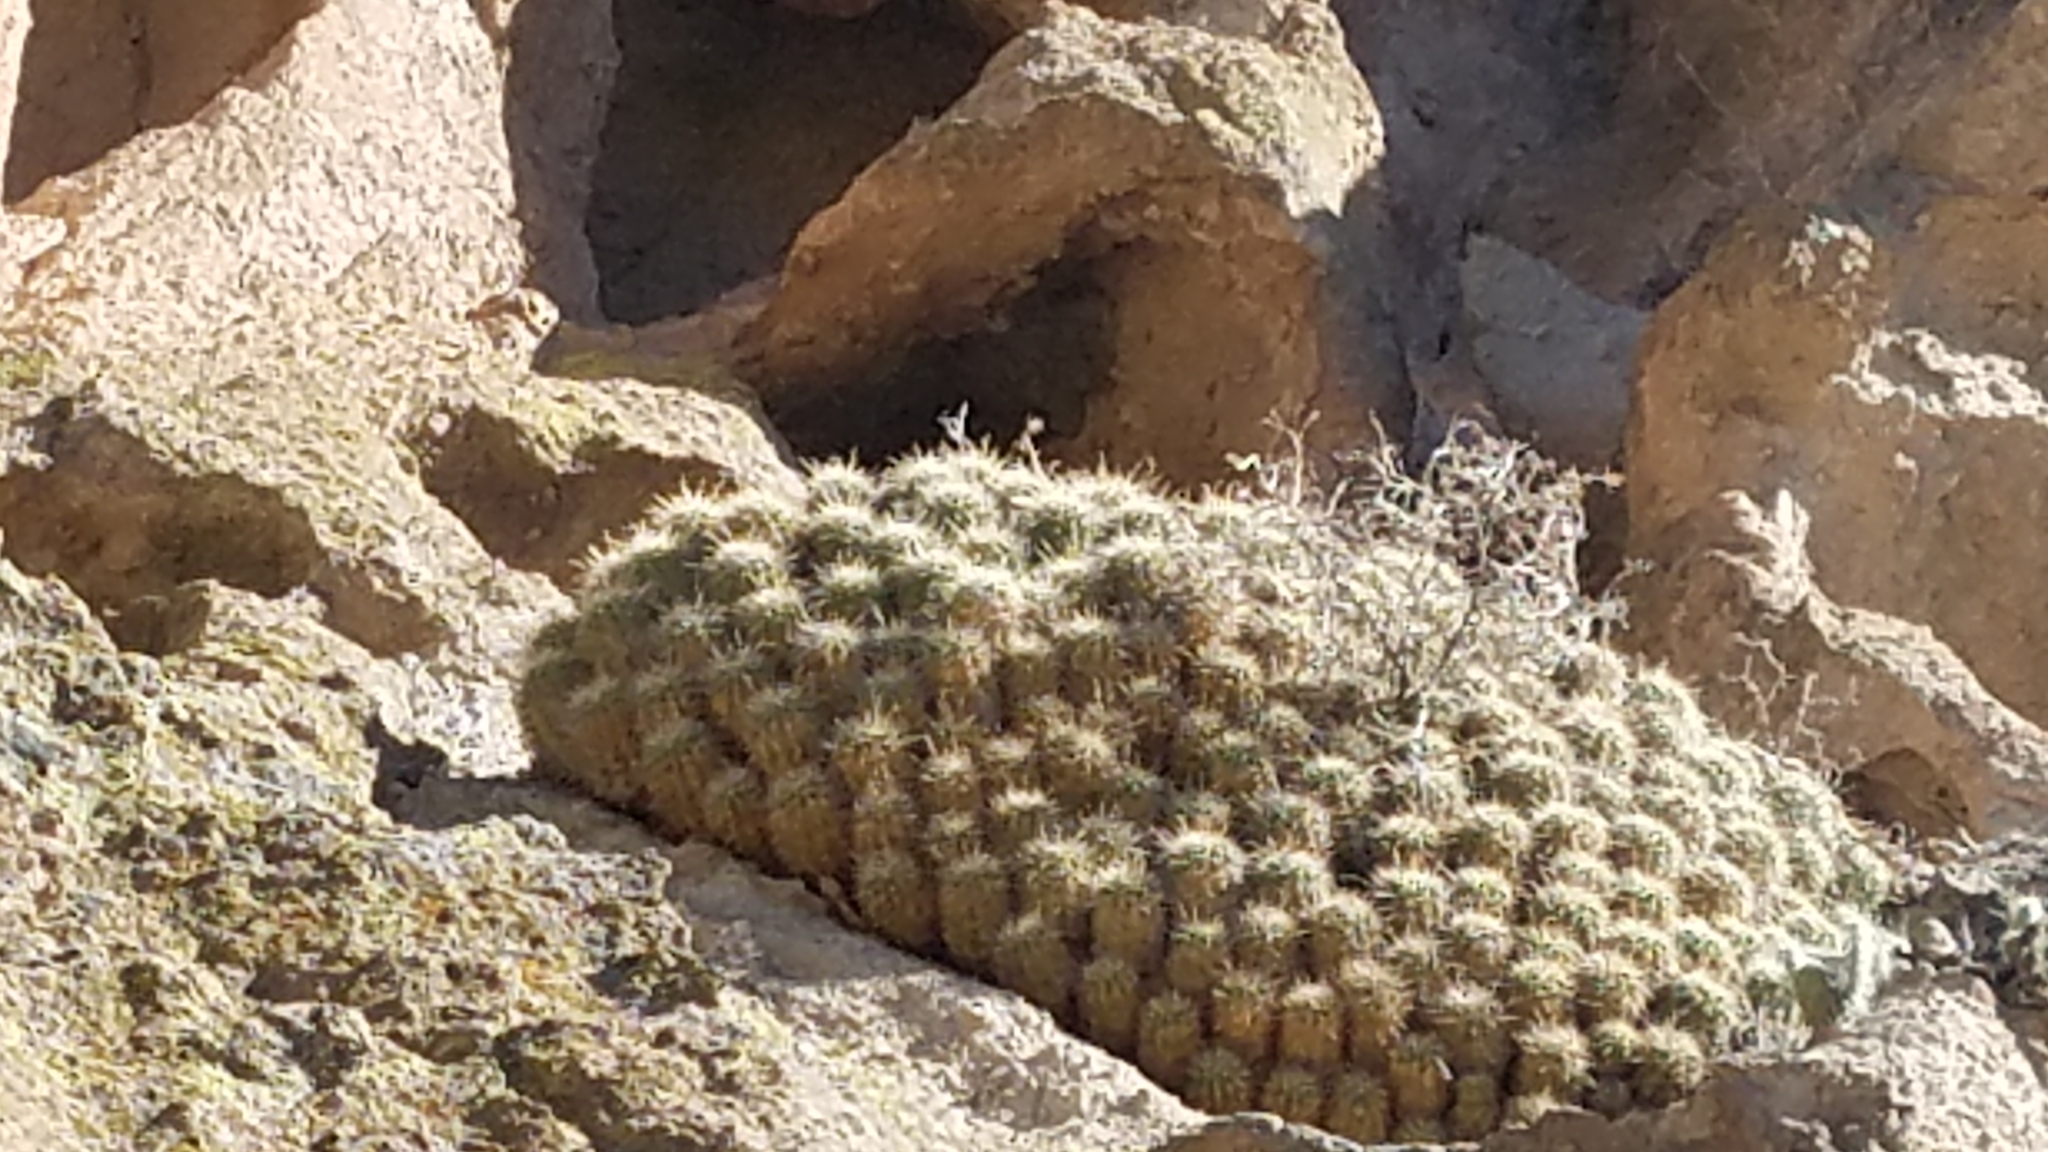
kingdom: Plantae
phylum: Tracheophyta
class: Magnoliopsida
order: Caryophyllales
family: Cactaceae
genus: Echinocereus
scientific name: Echinocereus coccineus
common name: Scarlet hedgehog cactus
